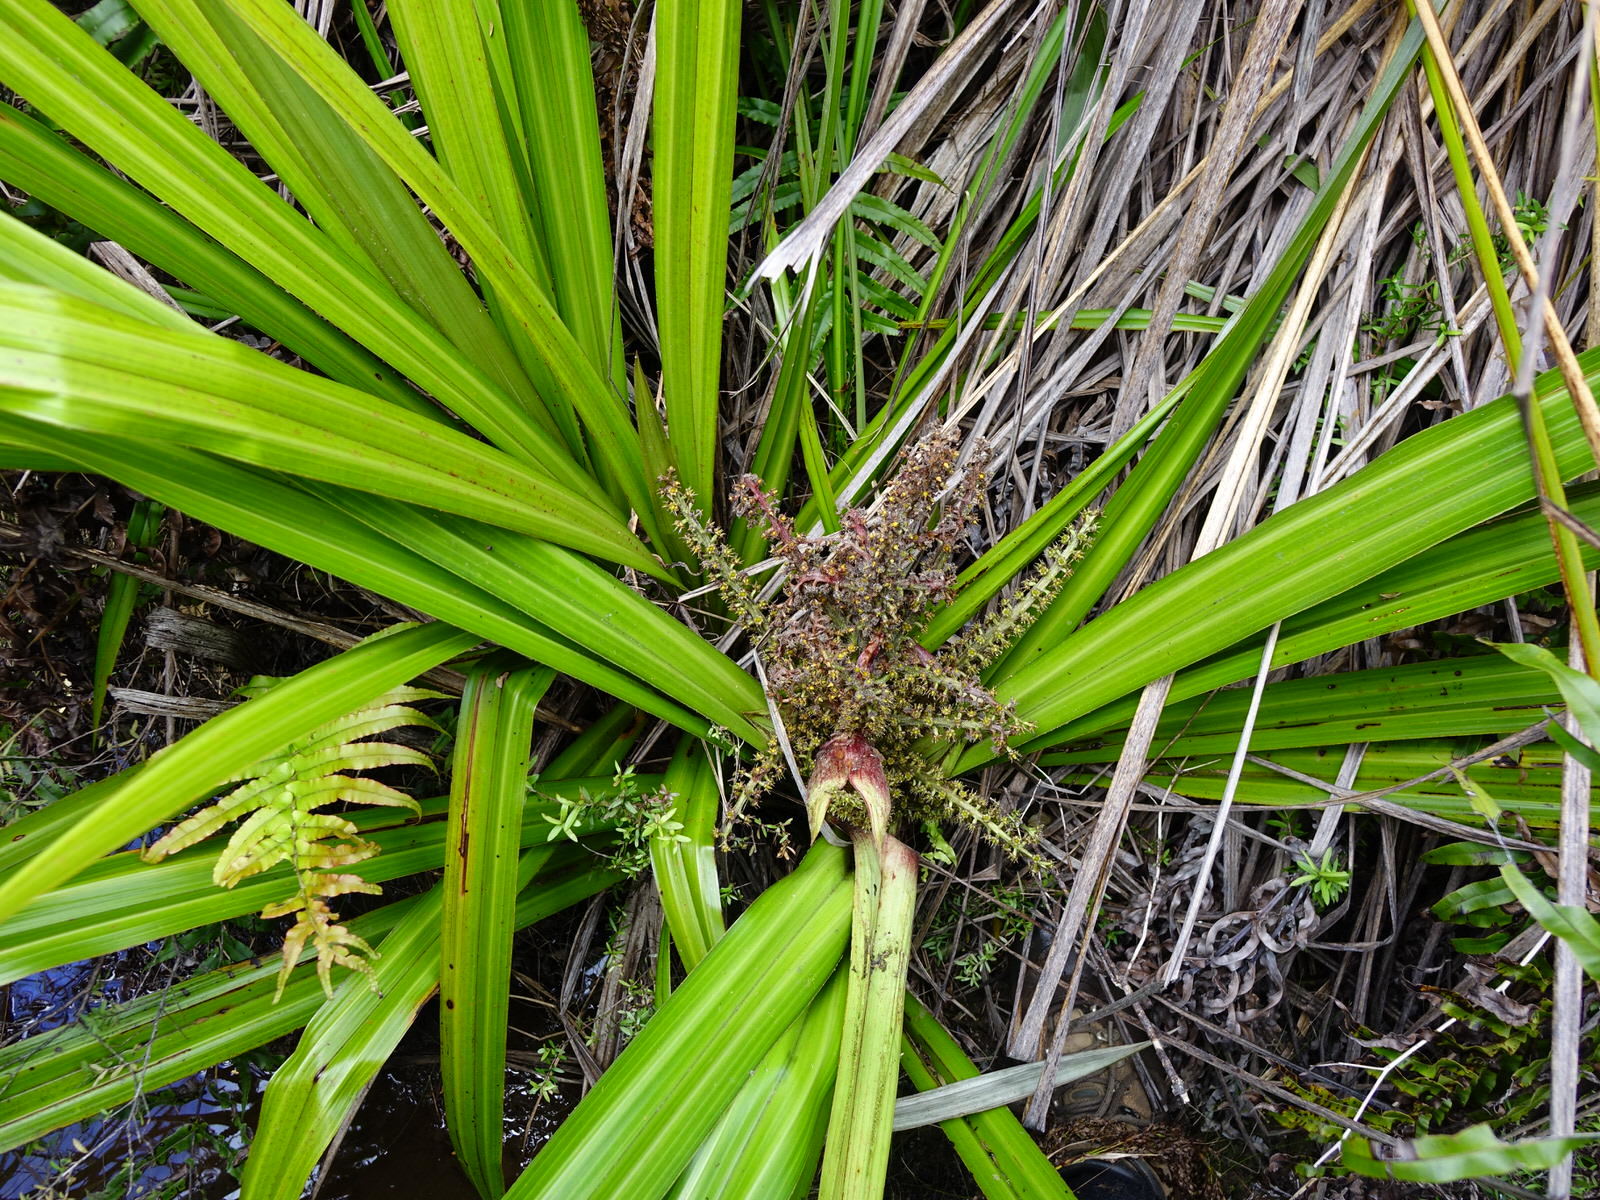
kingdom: Plantae
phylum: Tracheophyta
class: Liliopsida
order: Asparagales
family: Asteliaceae
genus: Astelia
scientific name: Astelia grandis
